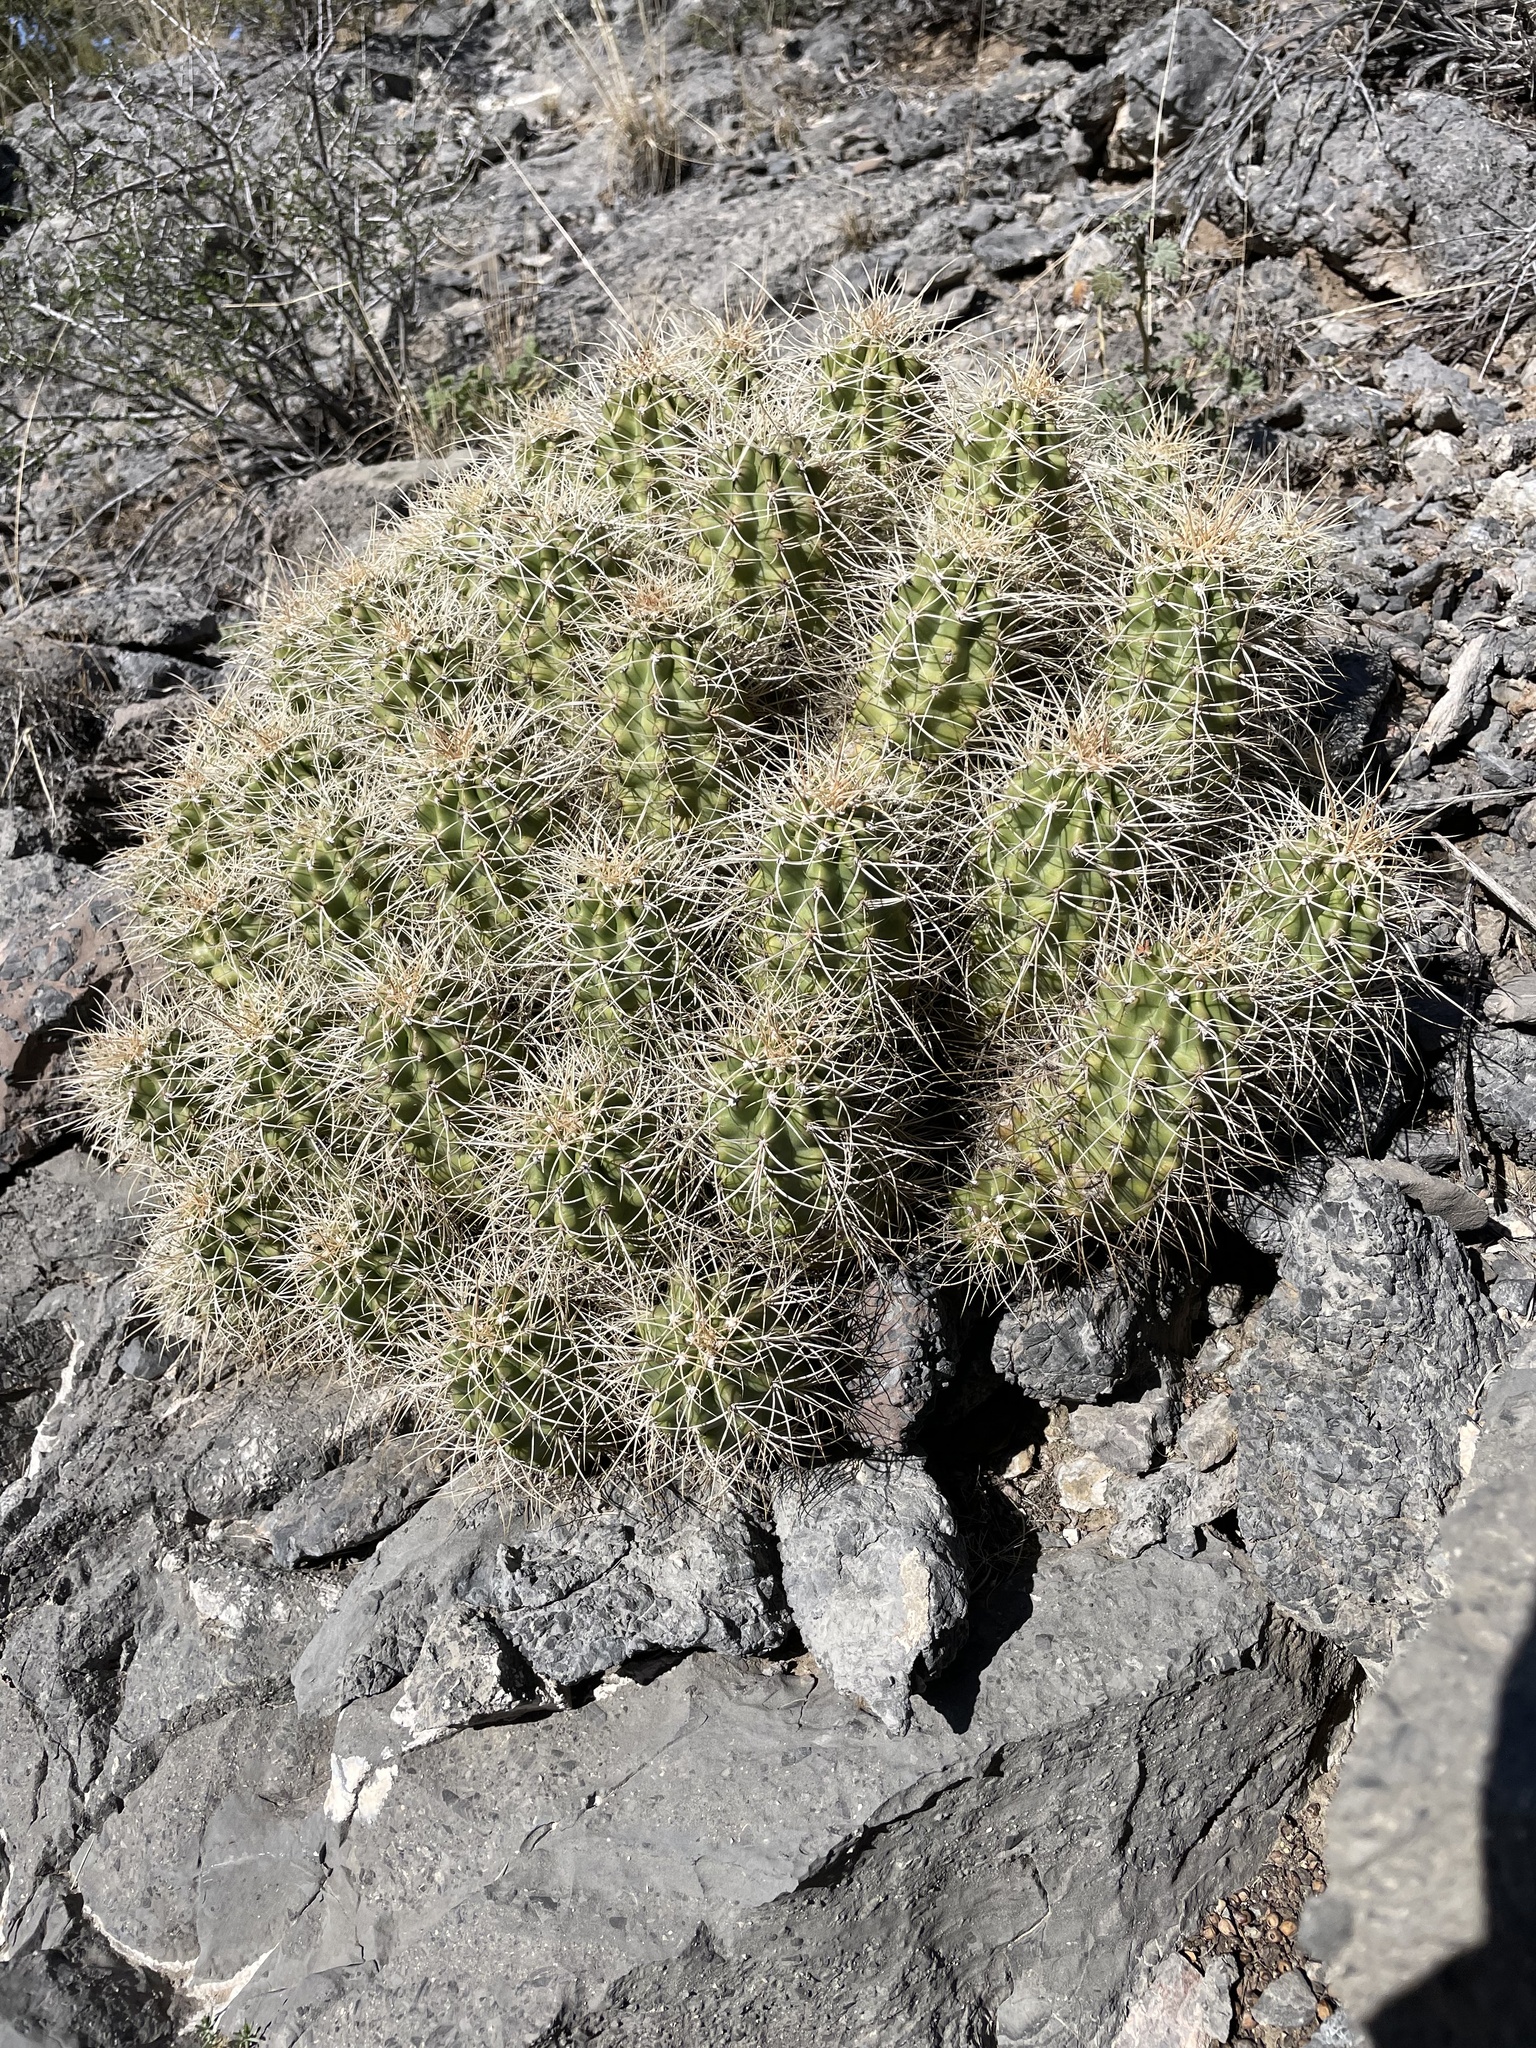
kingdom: Plantae
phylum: Tracheophyta
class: Magnoliopsida
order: Caryophyllales
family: Cactaceae
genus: Echinocereus
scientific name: Echinocereus triglochidiatus
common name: Claretcup hedgehog
